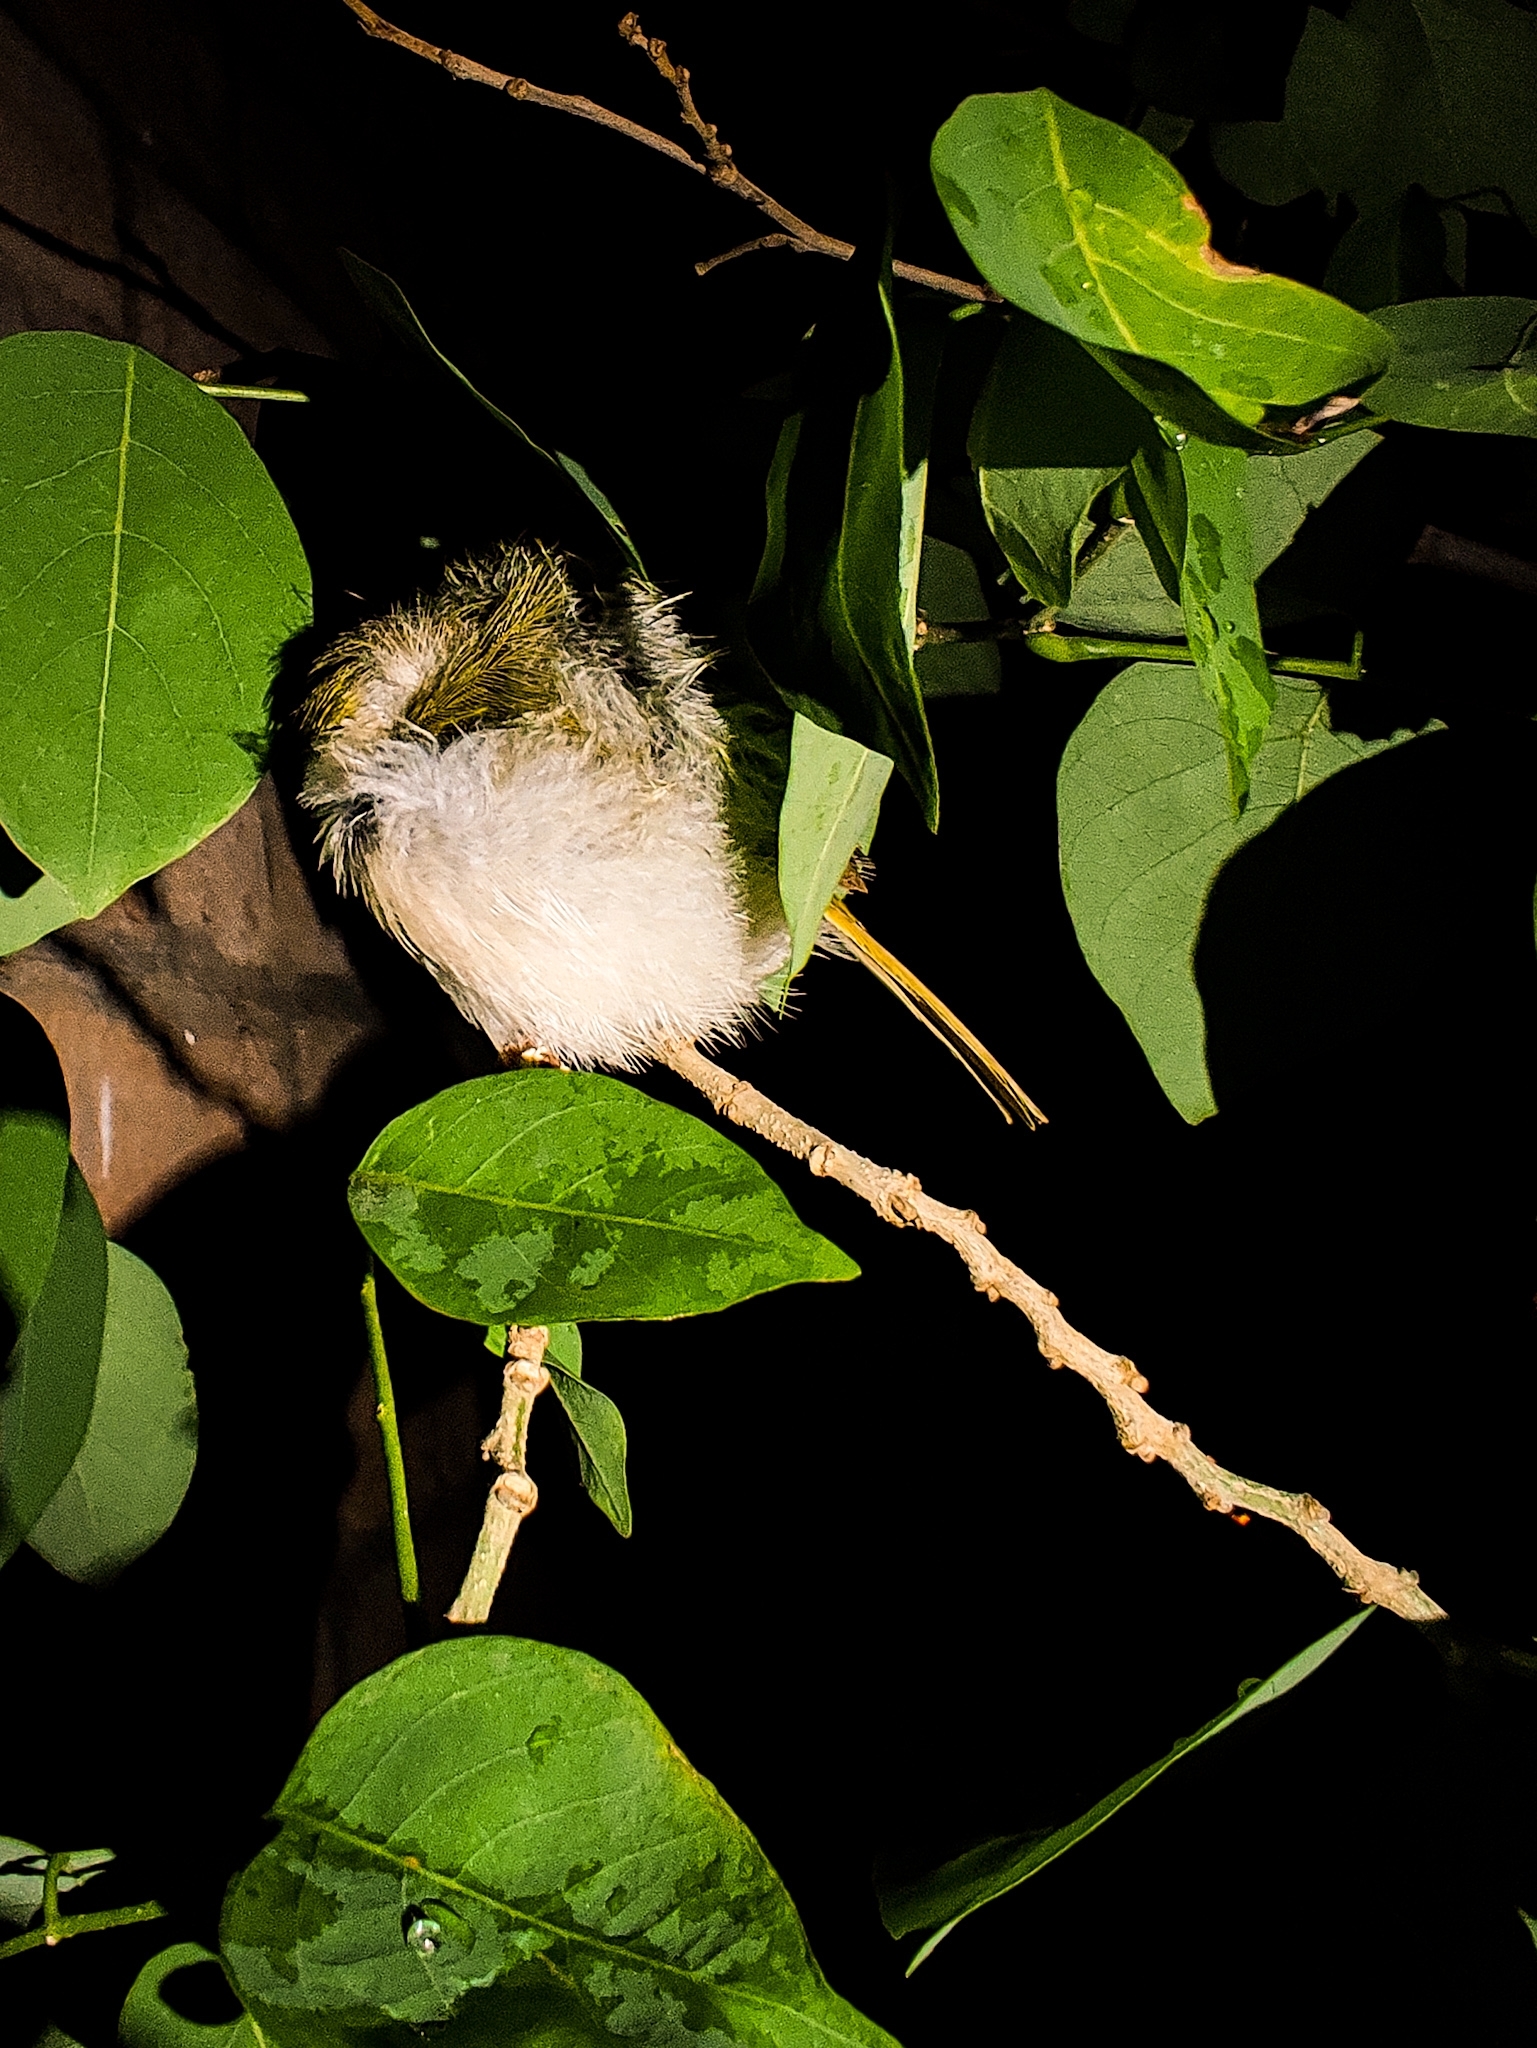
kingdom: Animalia
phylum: Chordata
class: Aves
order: Passeriformes
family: Cisticolidae
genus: Orthotomus
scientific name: Orthotomus sutorius
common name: Common tailorbird
